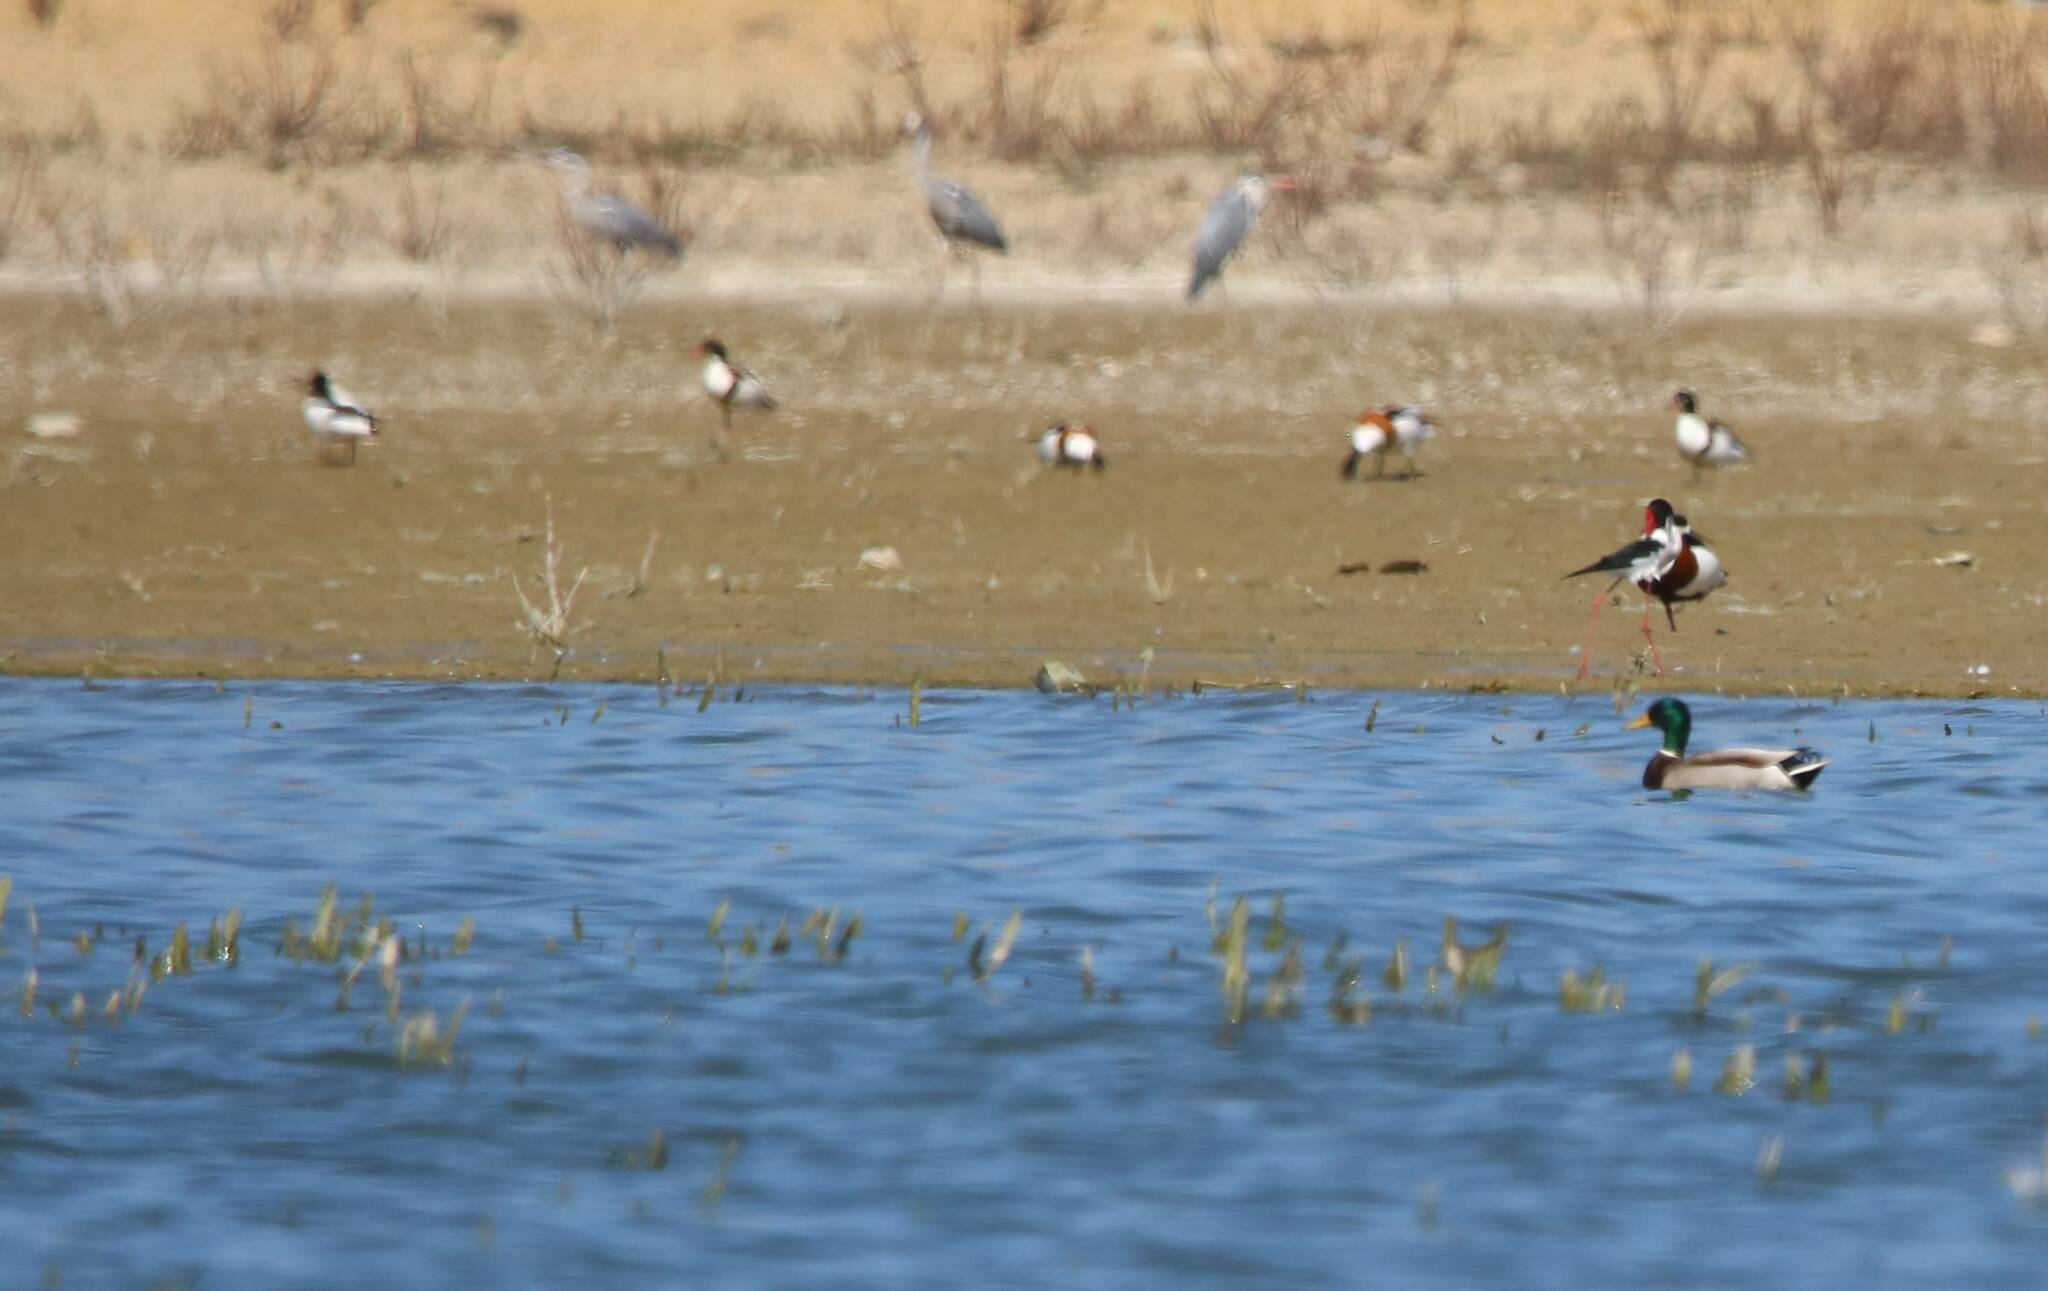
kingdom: Animalia
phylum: Chordata
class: Aves
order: Anseriformes
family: Anatidae
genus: Tadorna
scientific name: Tadorna tadorna
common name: Common shelduck
